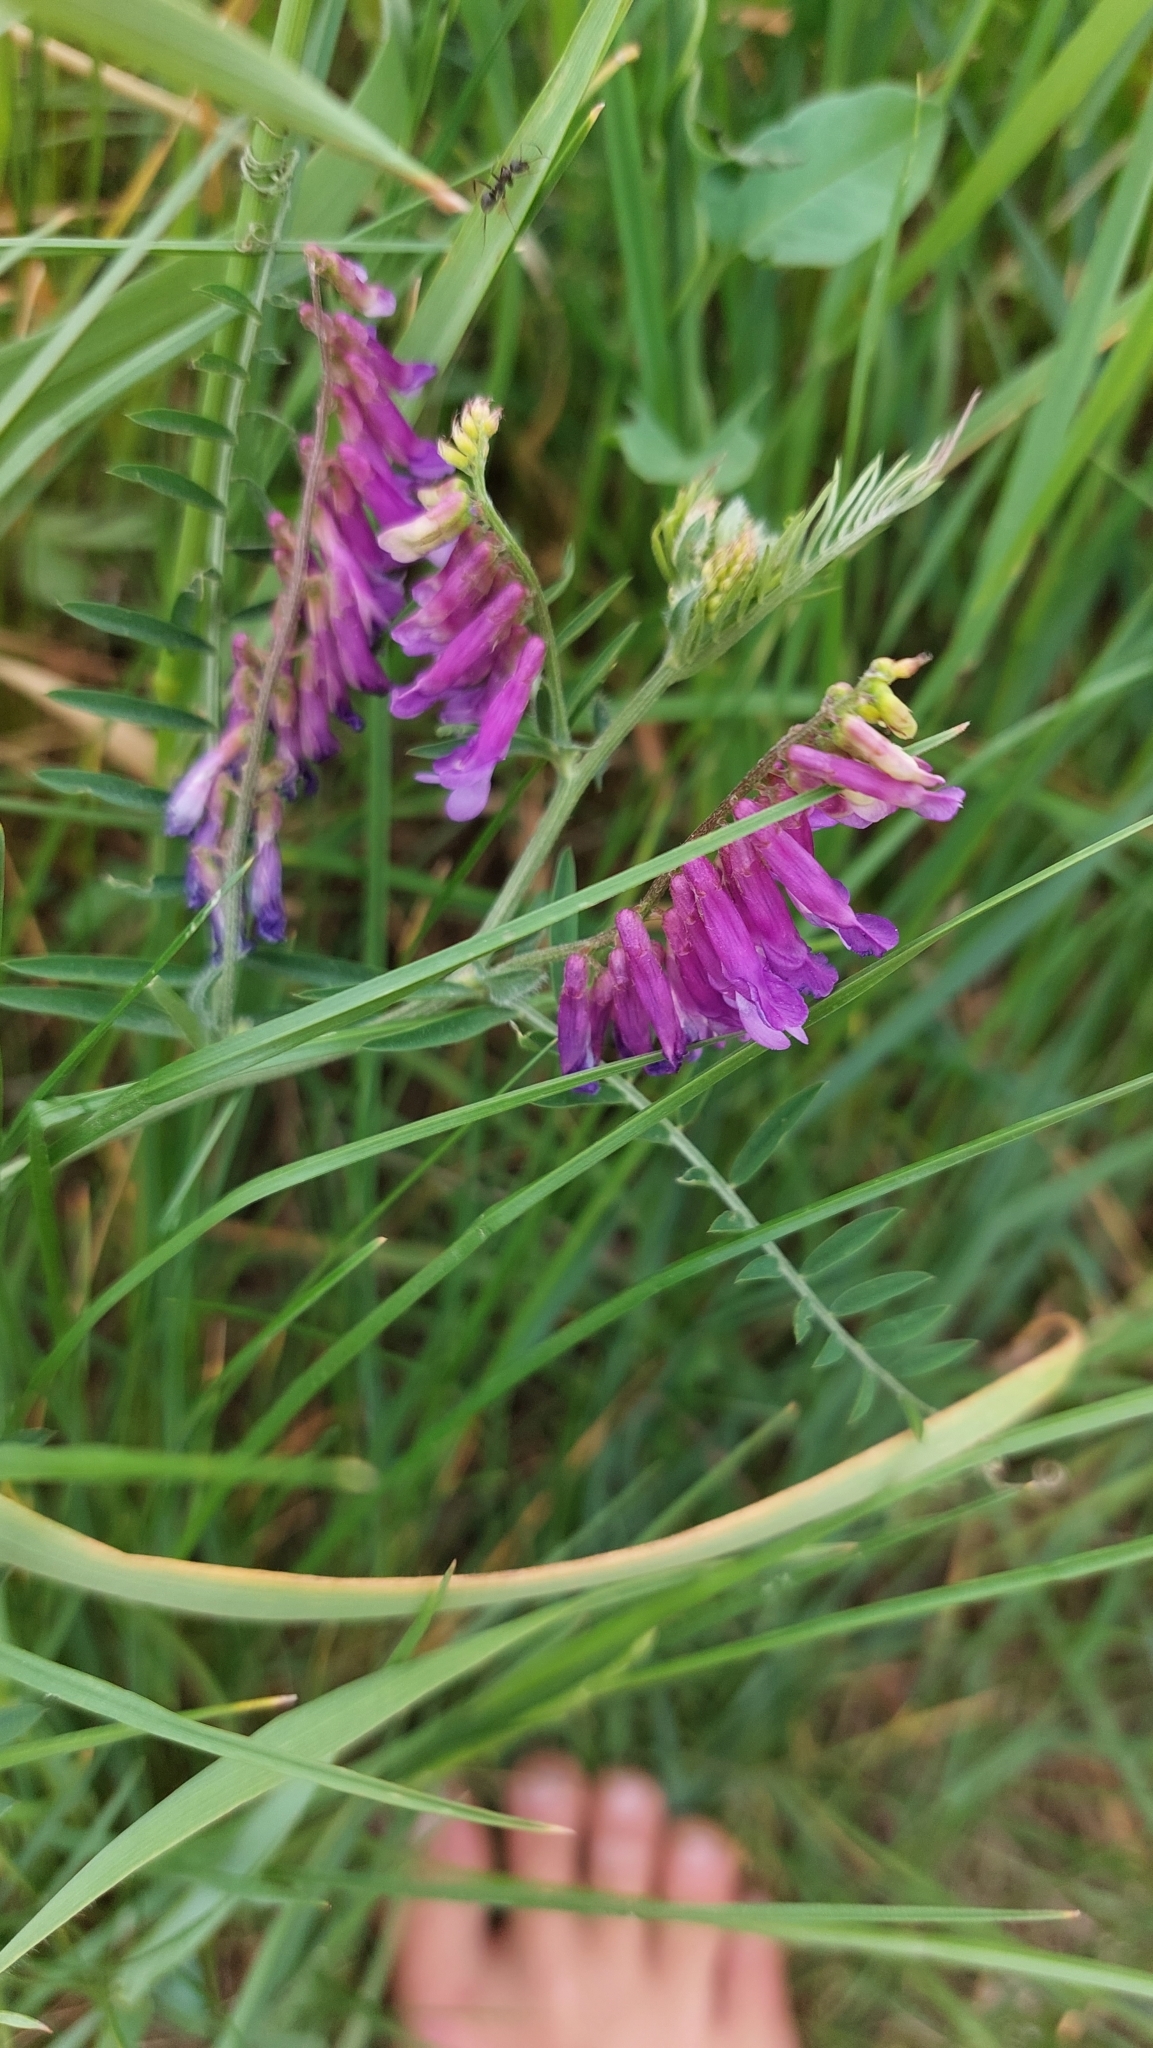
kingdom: Plantae
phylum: Tracheophyta
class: Magnoliopsida
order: Fabales
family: Fabaceae
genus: Vicia
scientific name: Vicia villosa
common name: Fodder vetch
